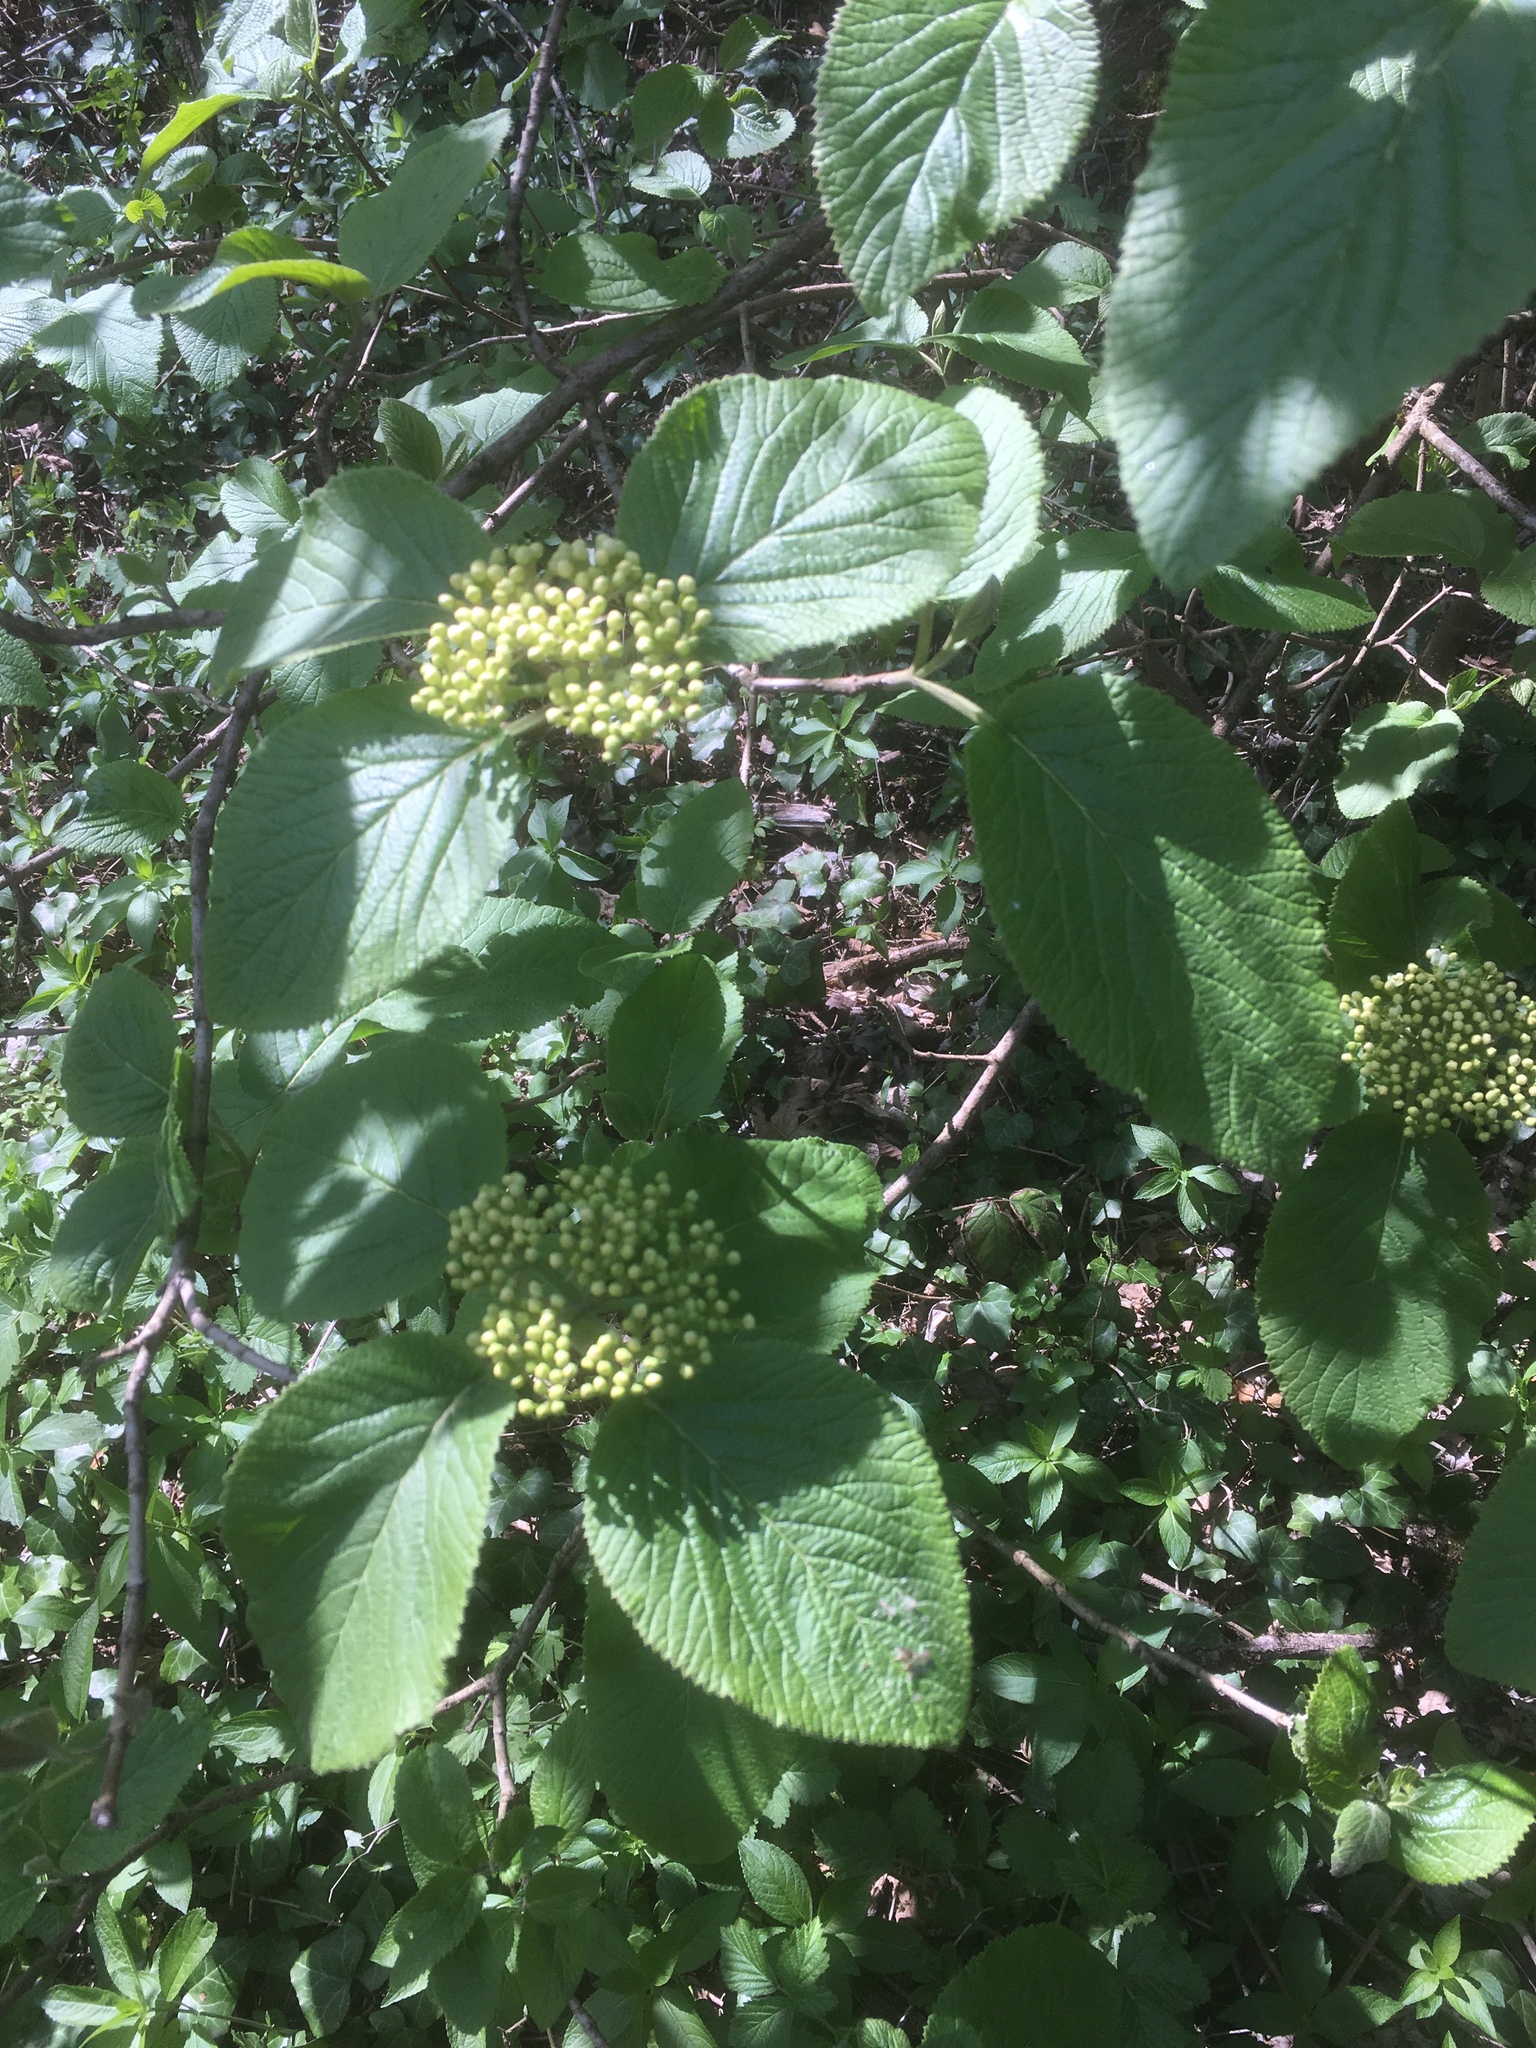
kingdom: Plantae
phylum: Tracheophyta
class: Magnoliopsida
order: Dipsacales
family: Viburnaceae
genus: Viburnum
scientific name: Viburnum lantana
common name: Wayfaring tree
